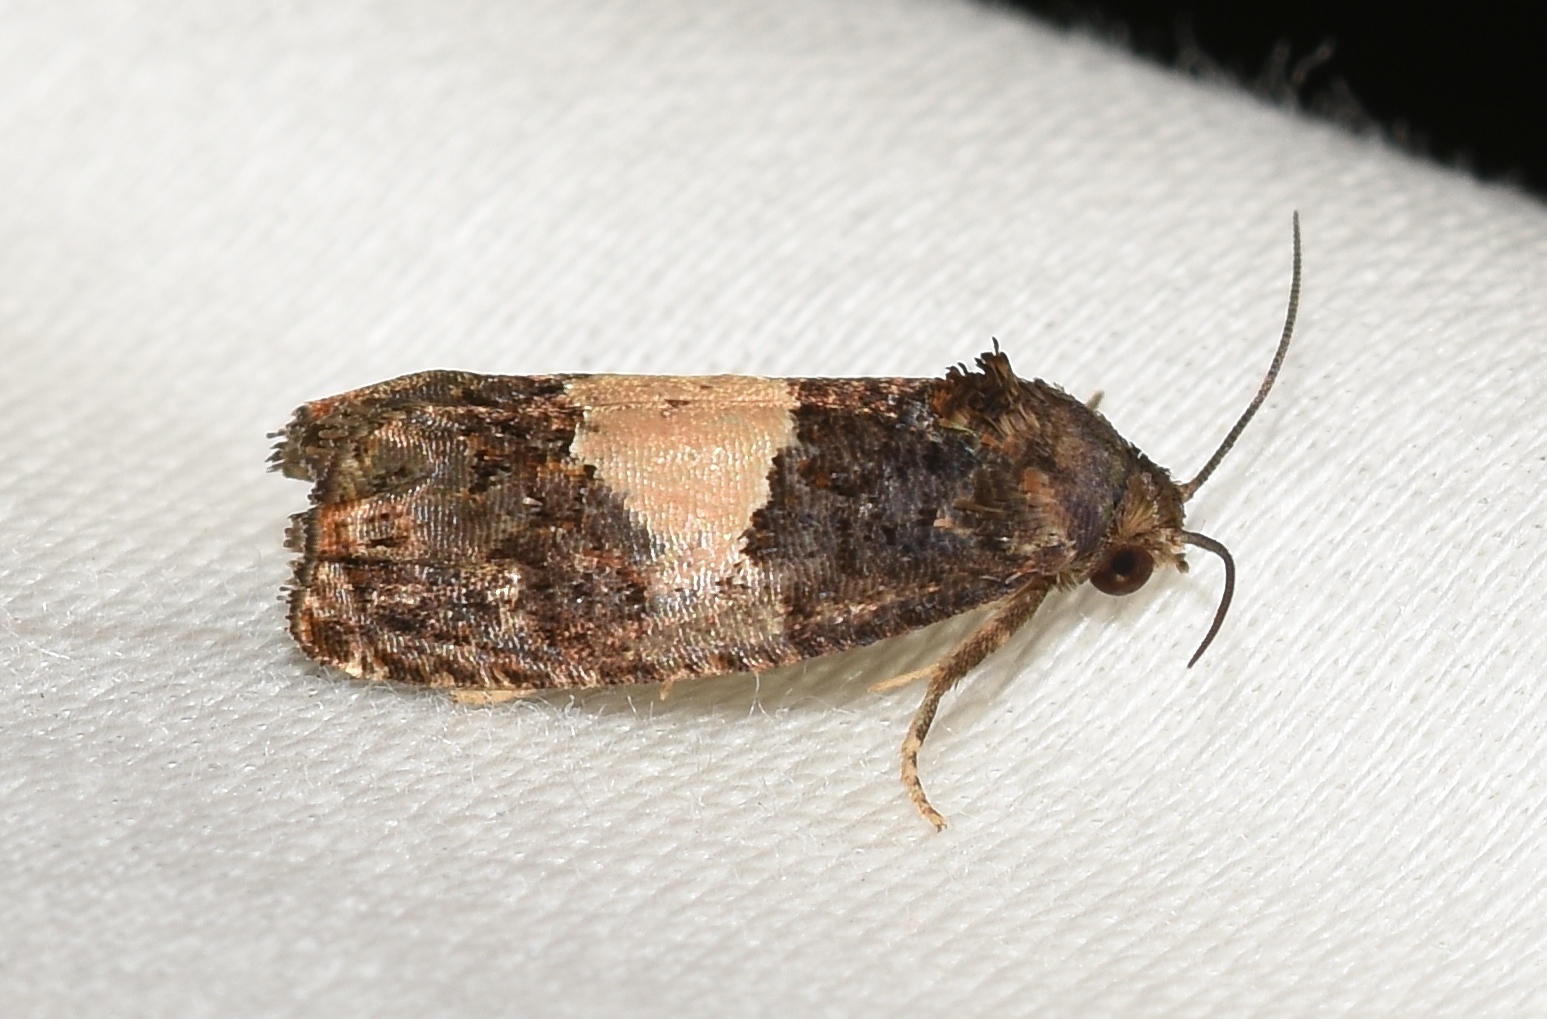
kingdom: Animalia
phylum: Arthropoda
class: Insecta
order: Lepidoptera
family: Tortricidae
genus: Epiblema
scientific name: Epiblema glenni
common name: Glenn's epiblema
